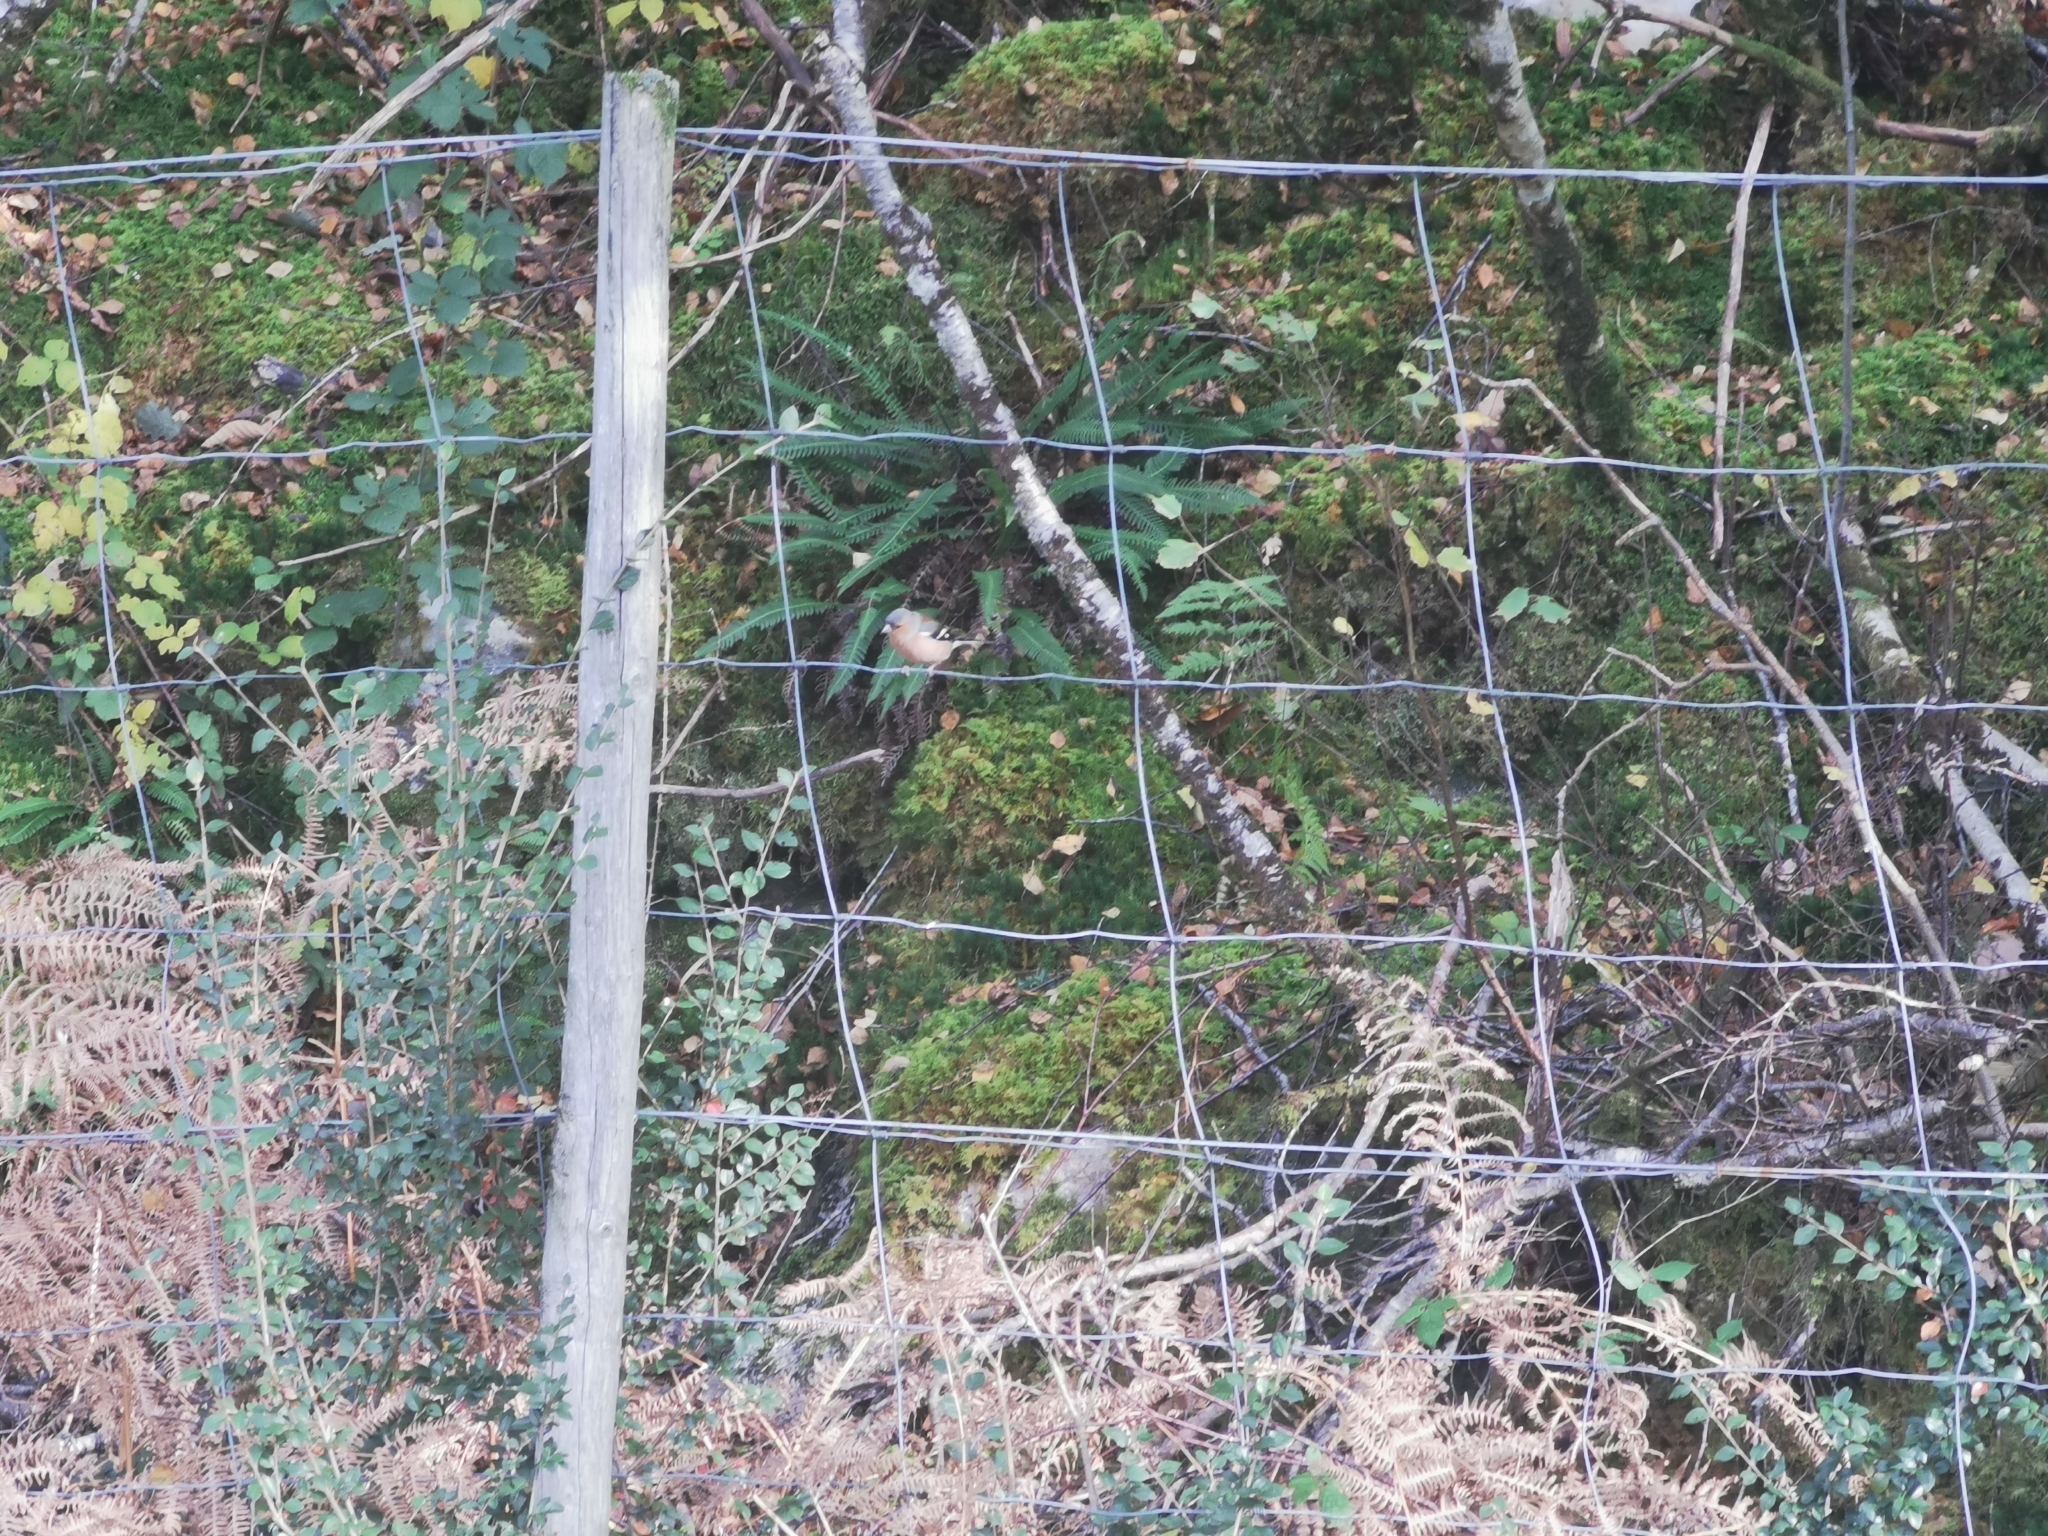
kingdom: Animalia
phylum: Chordata
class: Aves
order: Passeriformes
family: Fringillidae
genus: Fringilla
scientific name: Fringilla coelebs
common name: Common chaffinch
